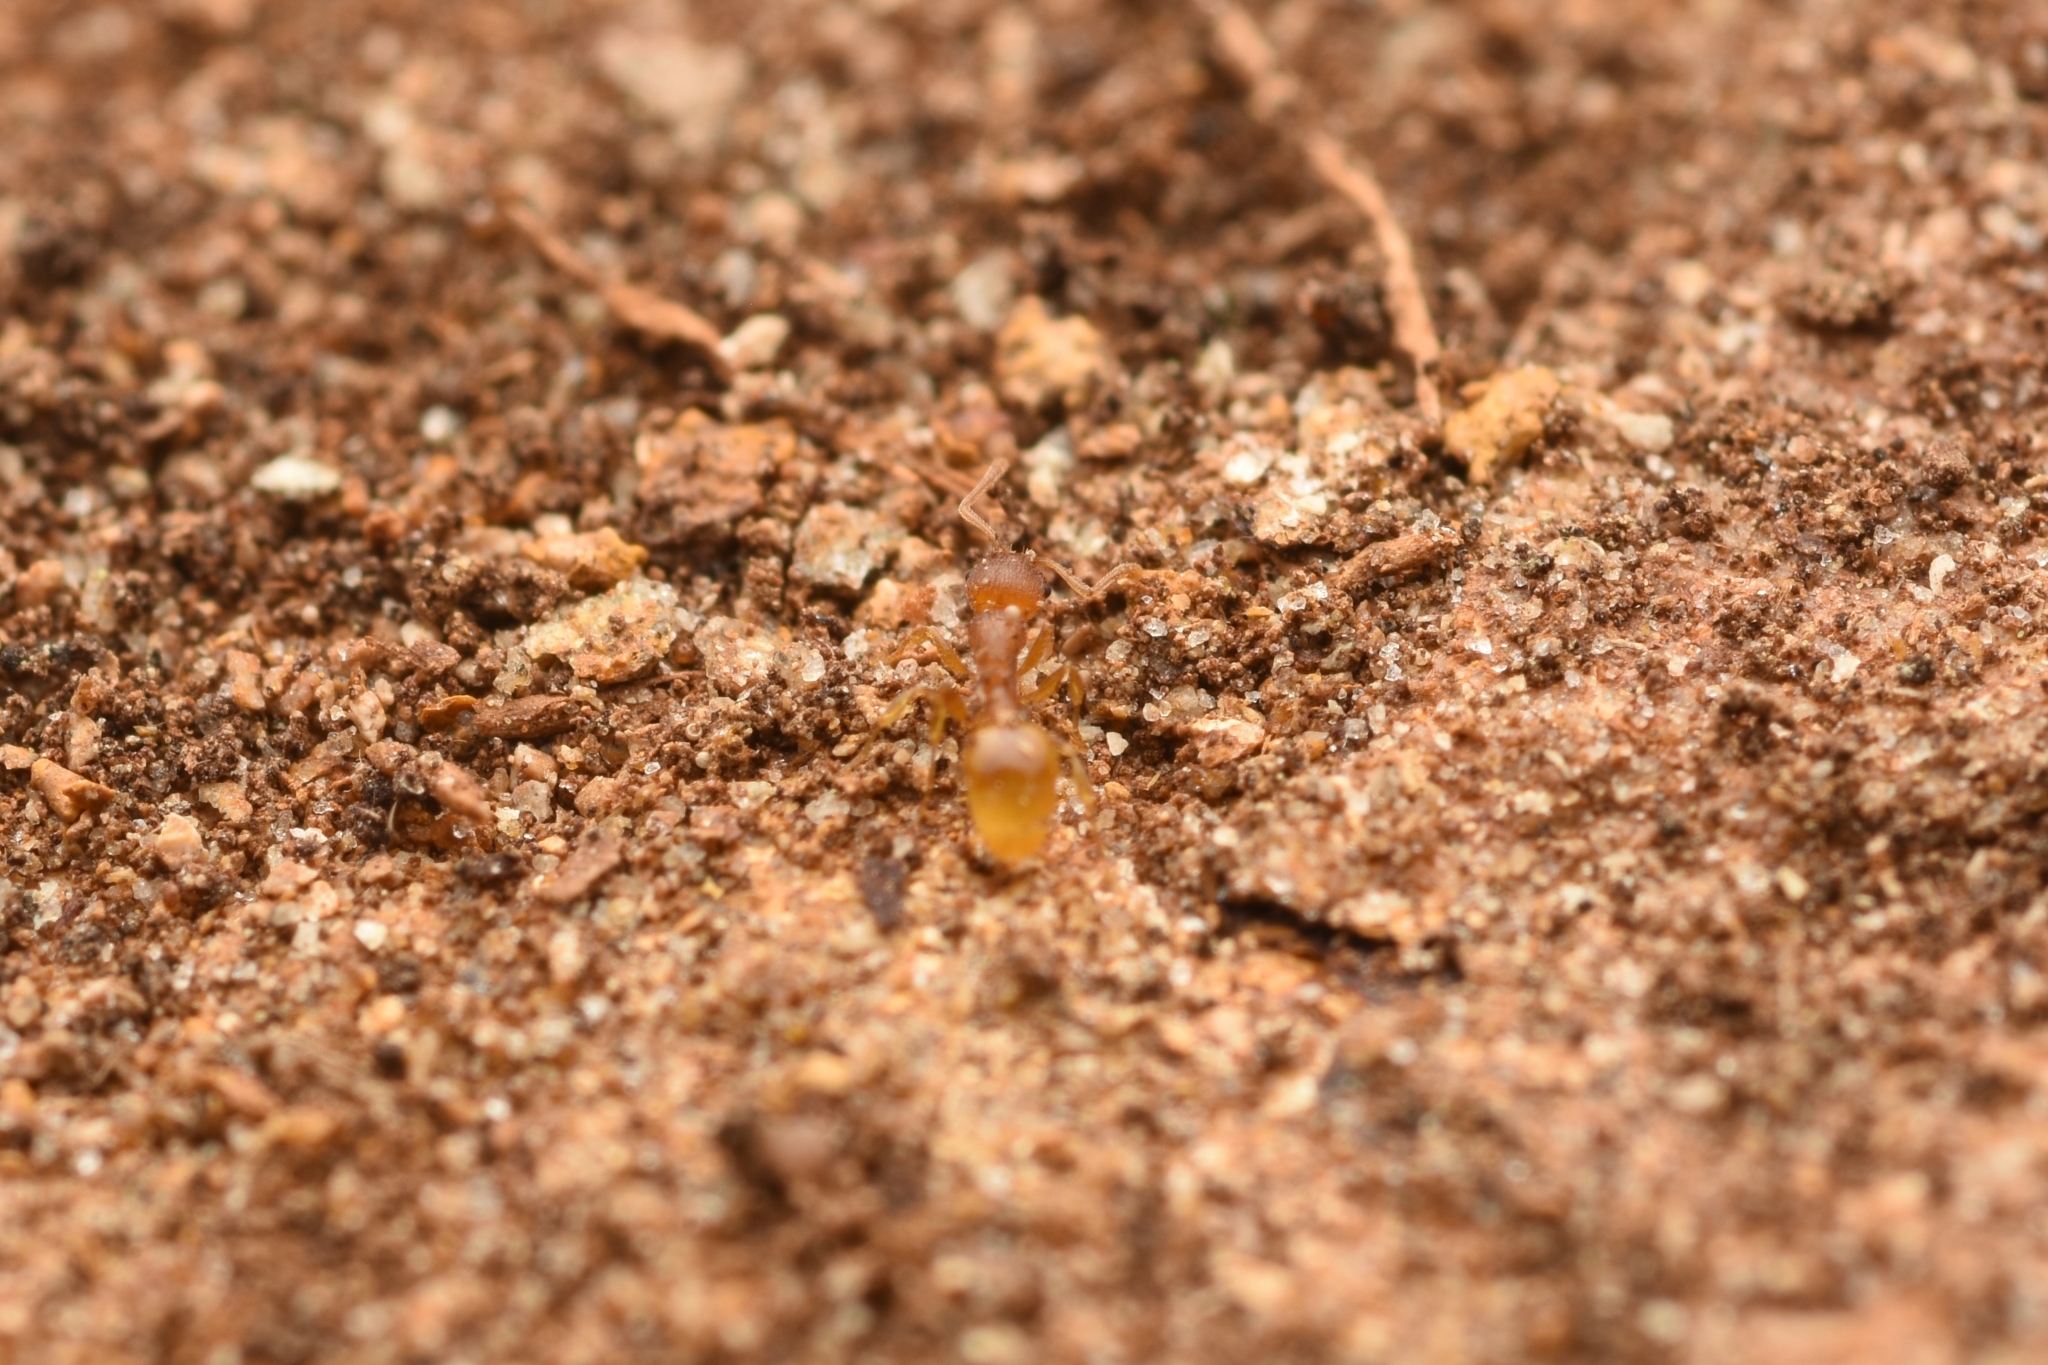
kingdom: Animalia
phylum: Arthropoda
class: Insecta
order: Hymenoptera
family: Formicidae
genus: Temnothorax
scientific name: Temnothorax
